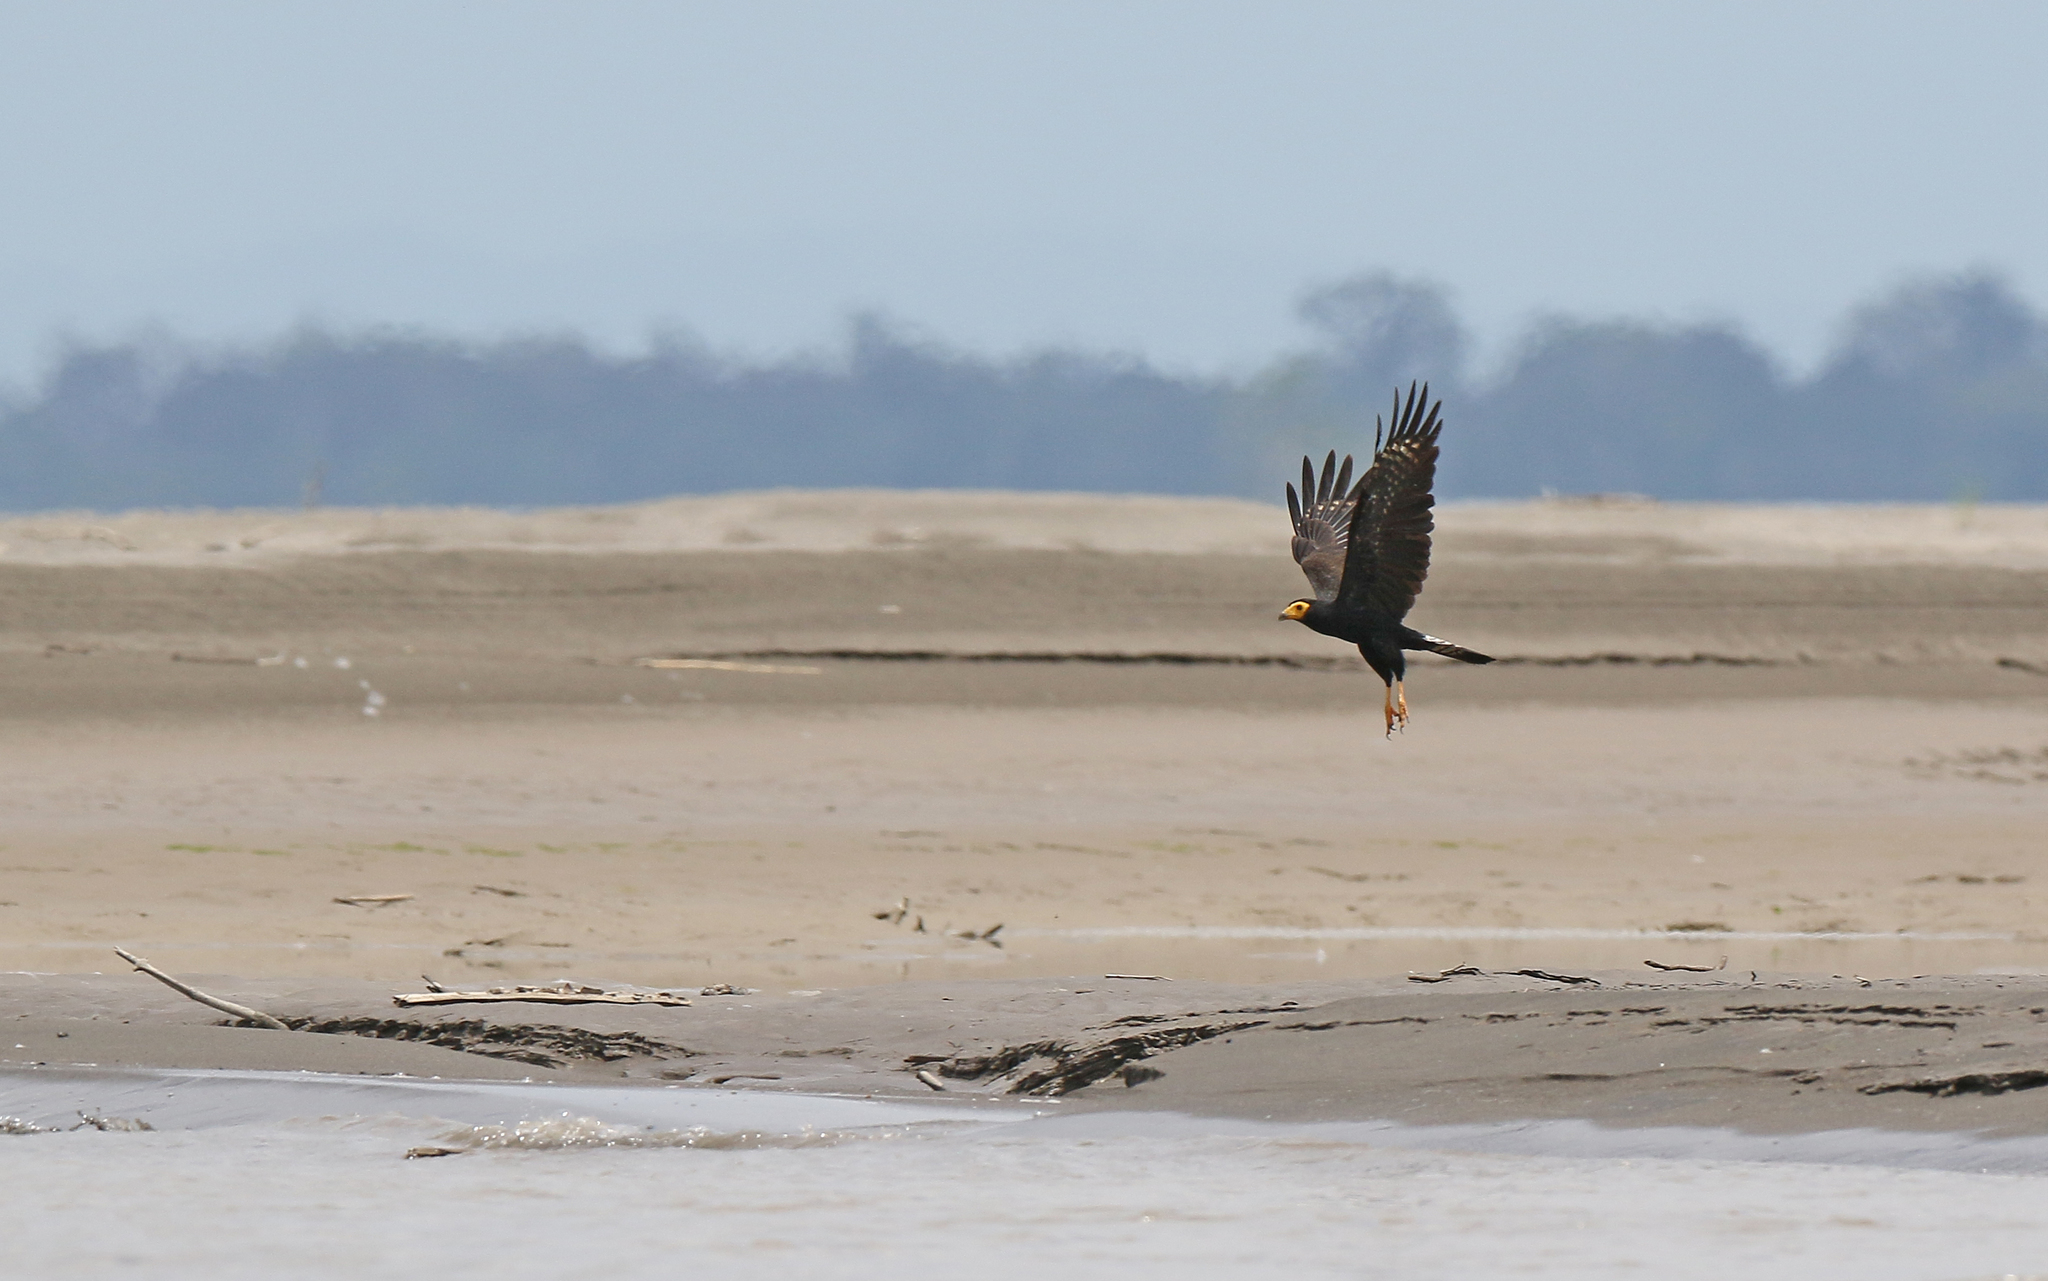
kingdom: Animalia
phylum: Chordata
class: Aves
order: Falconiformes
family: Falconidae
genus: Daptrius
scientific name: Daptrius ater
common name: Black caracara
